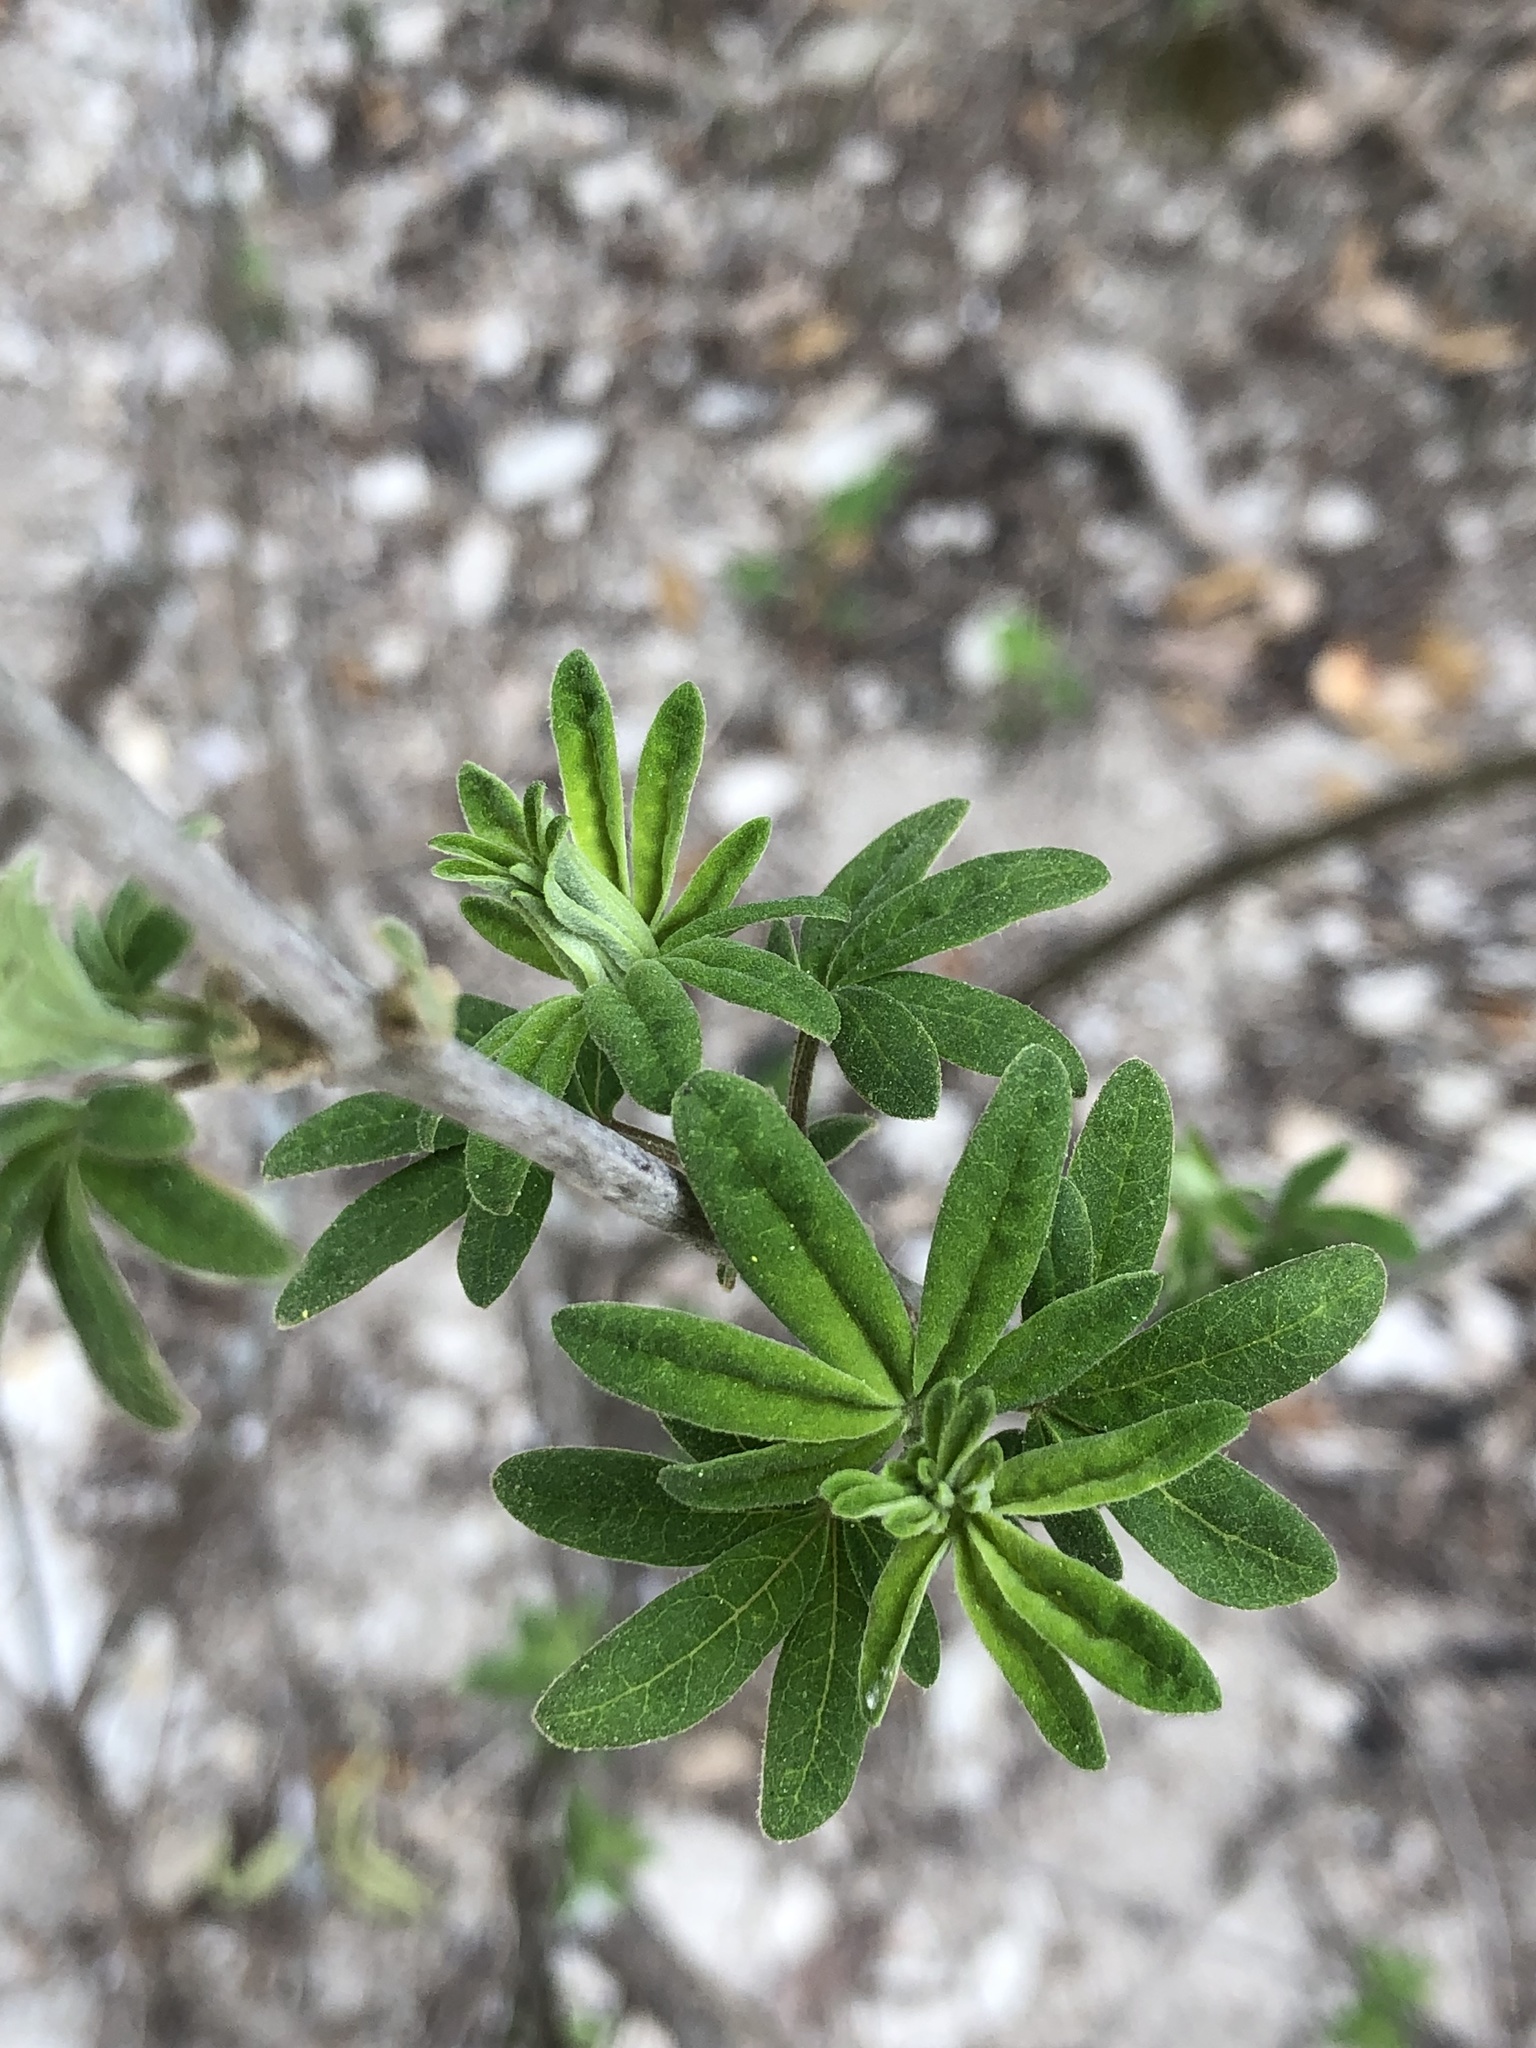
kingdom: Plantae
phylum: Tracheophyta
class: Magnoliopsida
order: Lamiales
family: Lamiaceae
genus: Vitex
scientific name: Vitex agnus-castus
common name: Chasteberry
